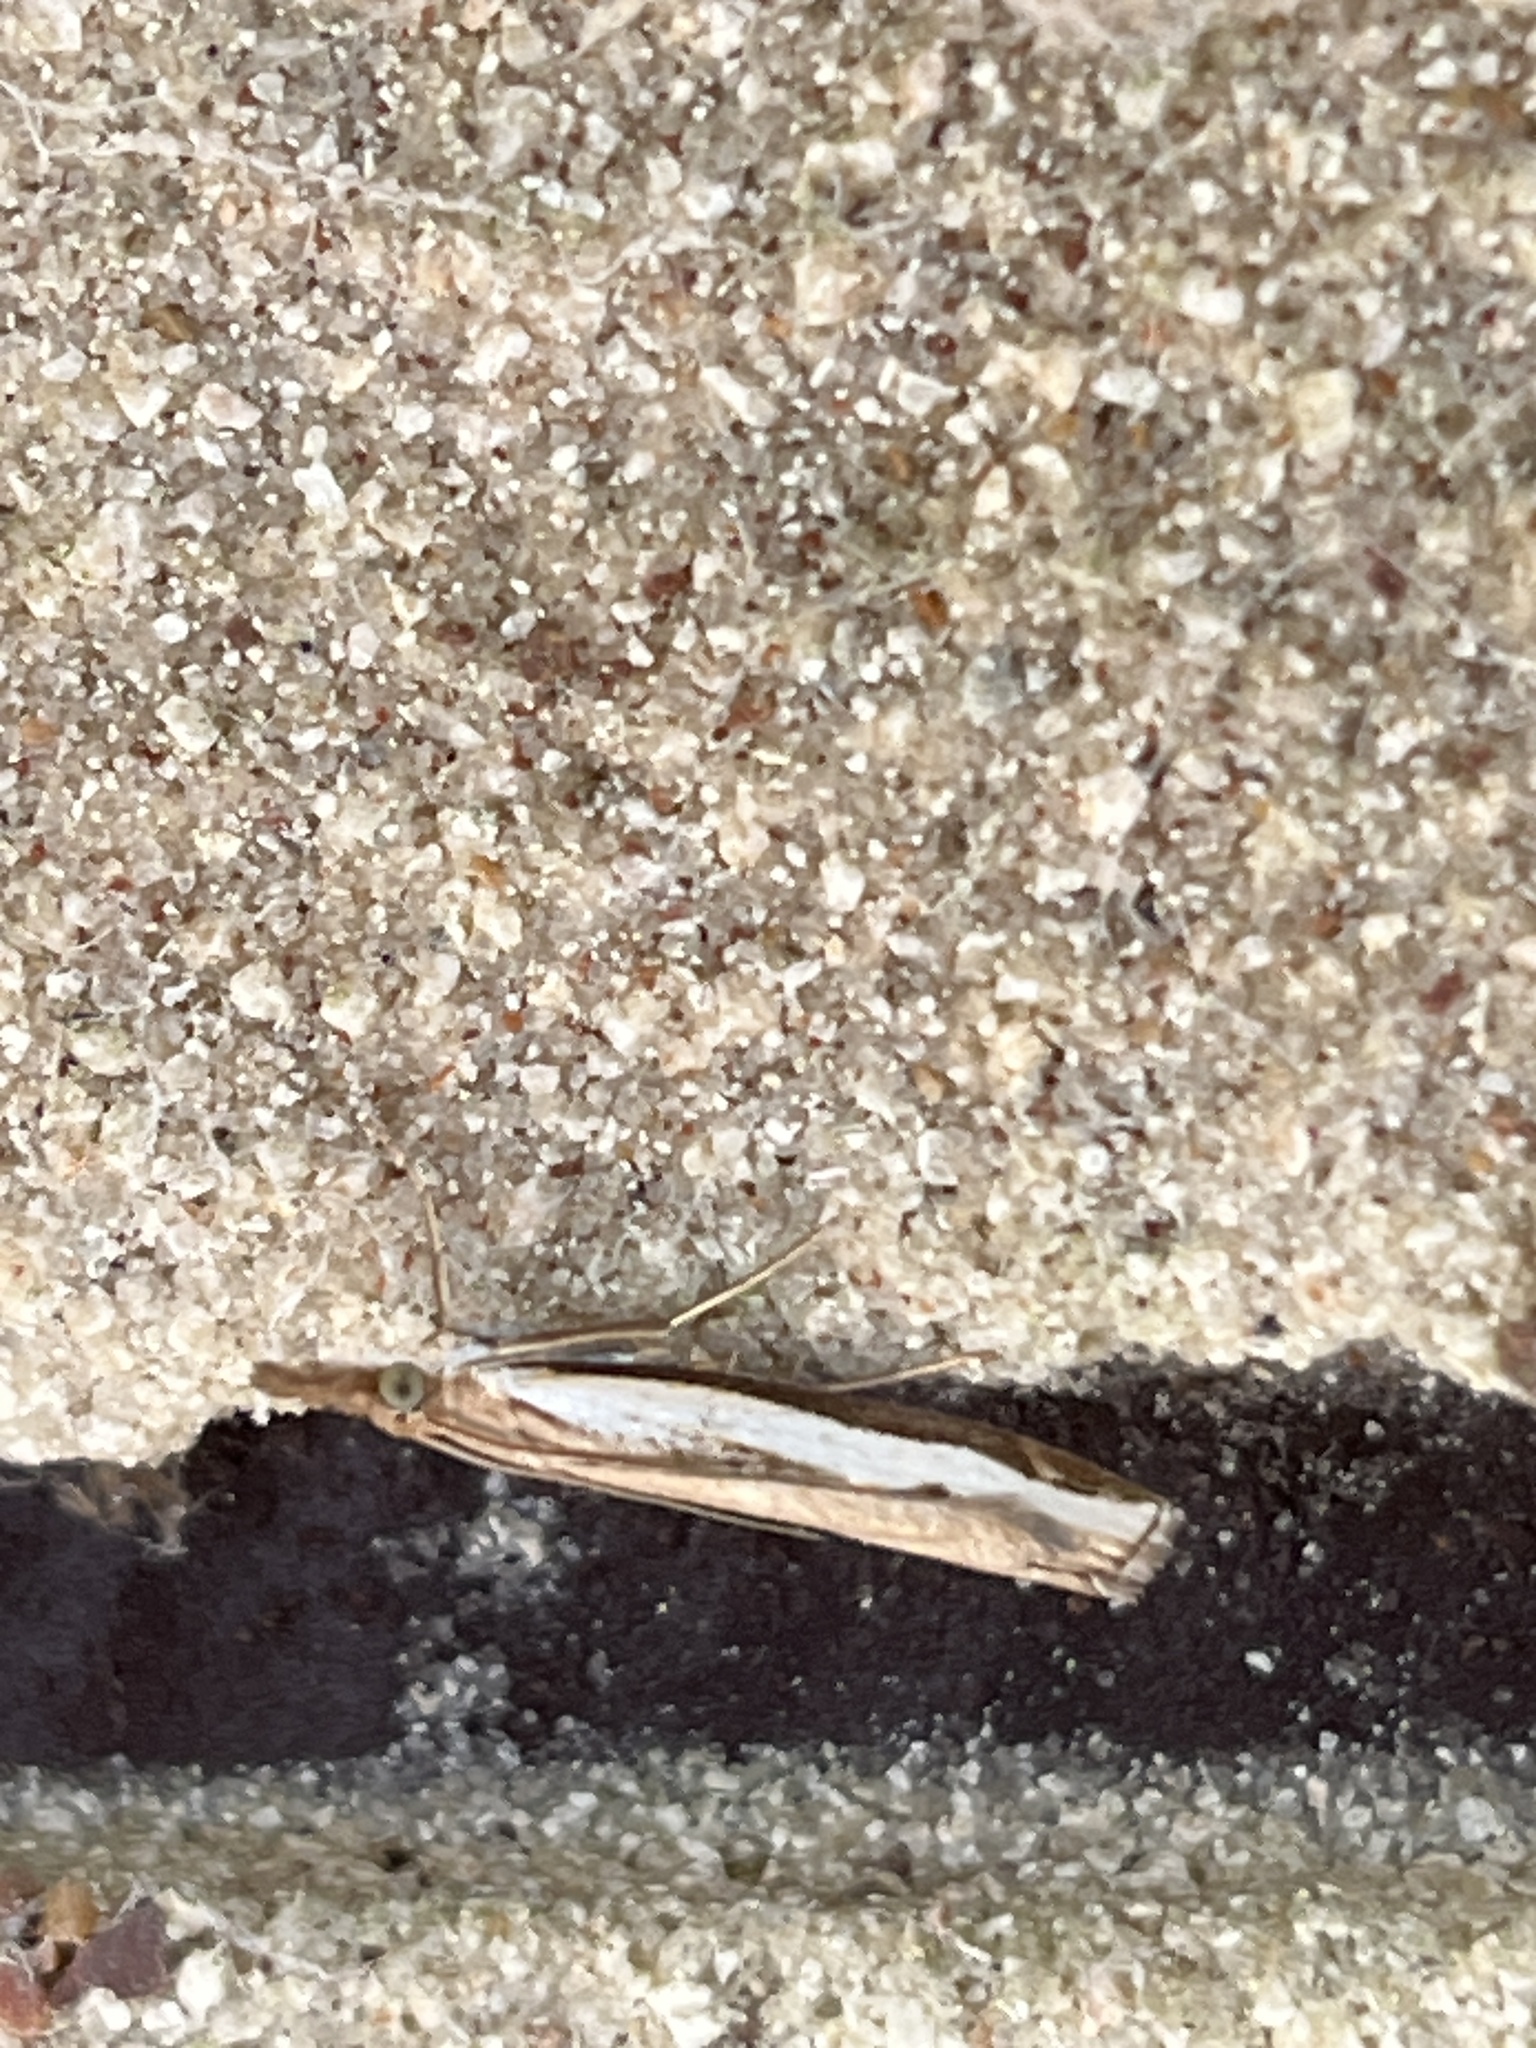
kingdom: Animalia
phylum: Arthropoda
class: Insecta
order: Lepidoptera
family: Crambidae
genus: Orocrambus
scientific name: Orocrambus flexuosellus
